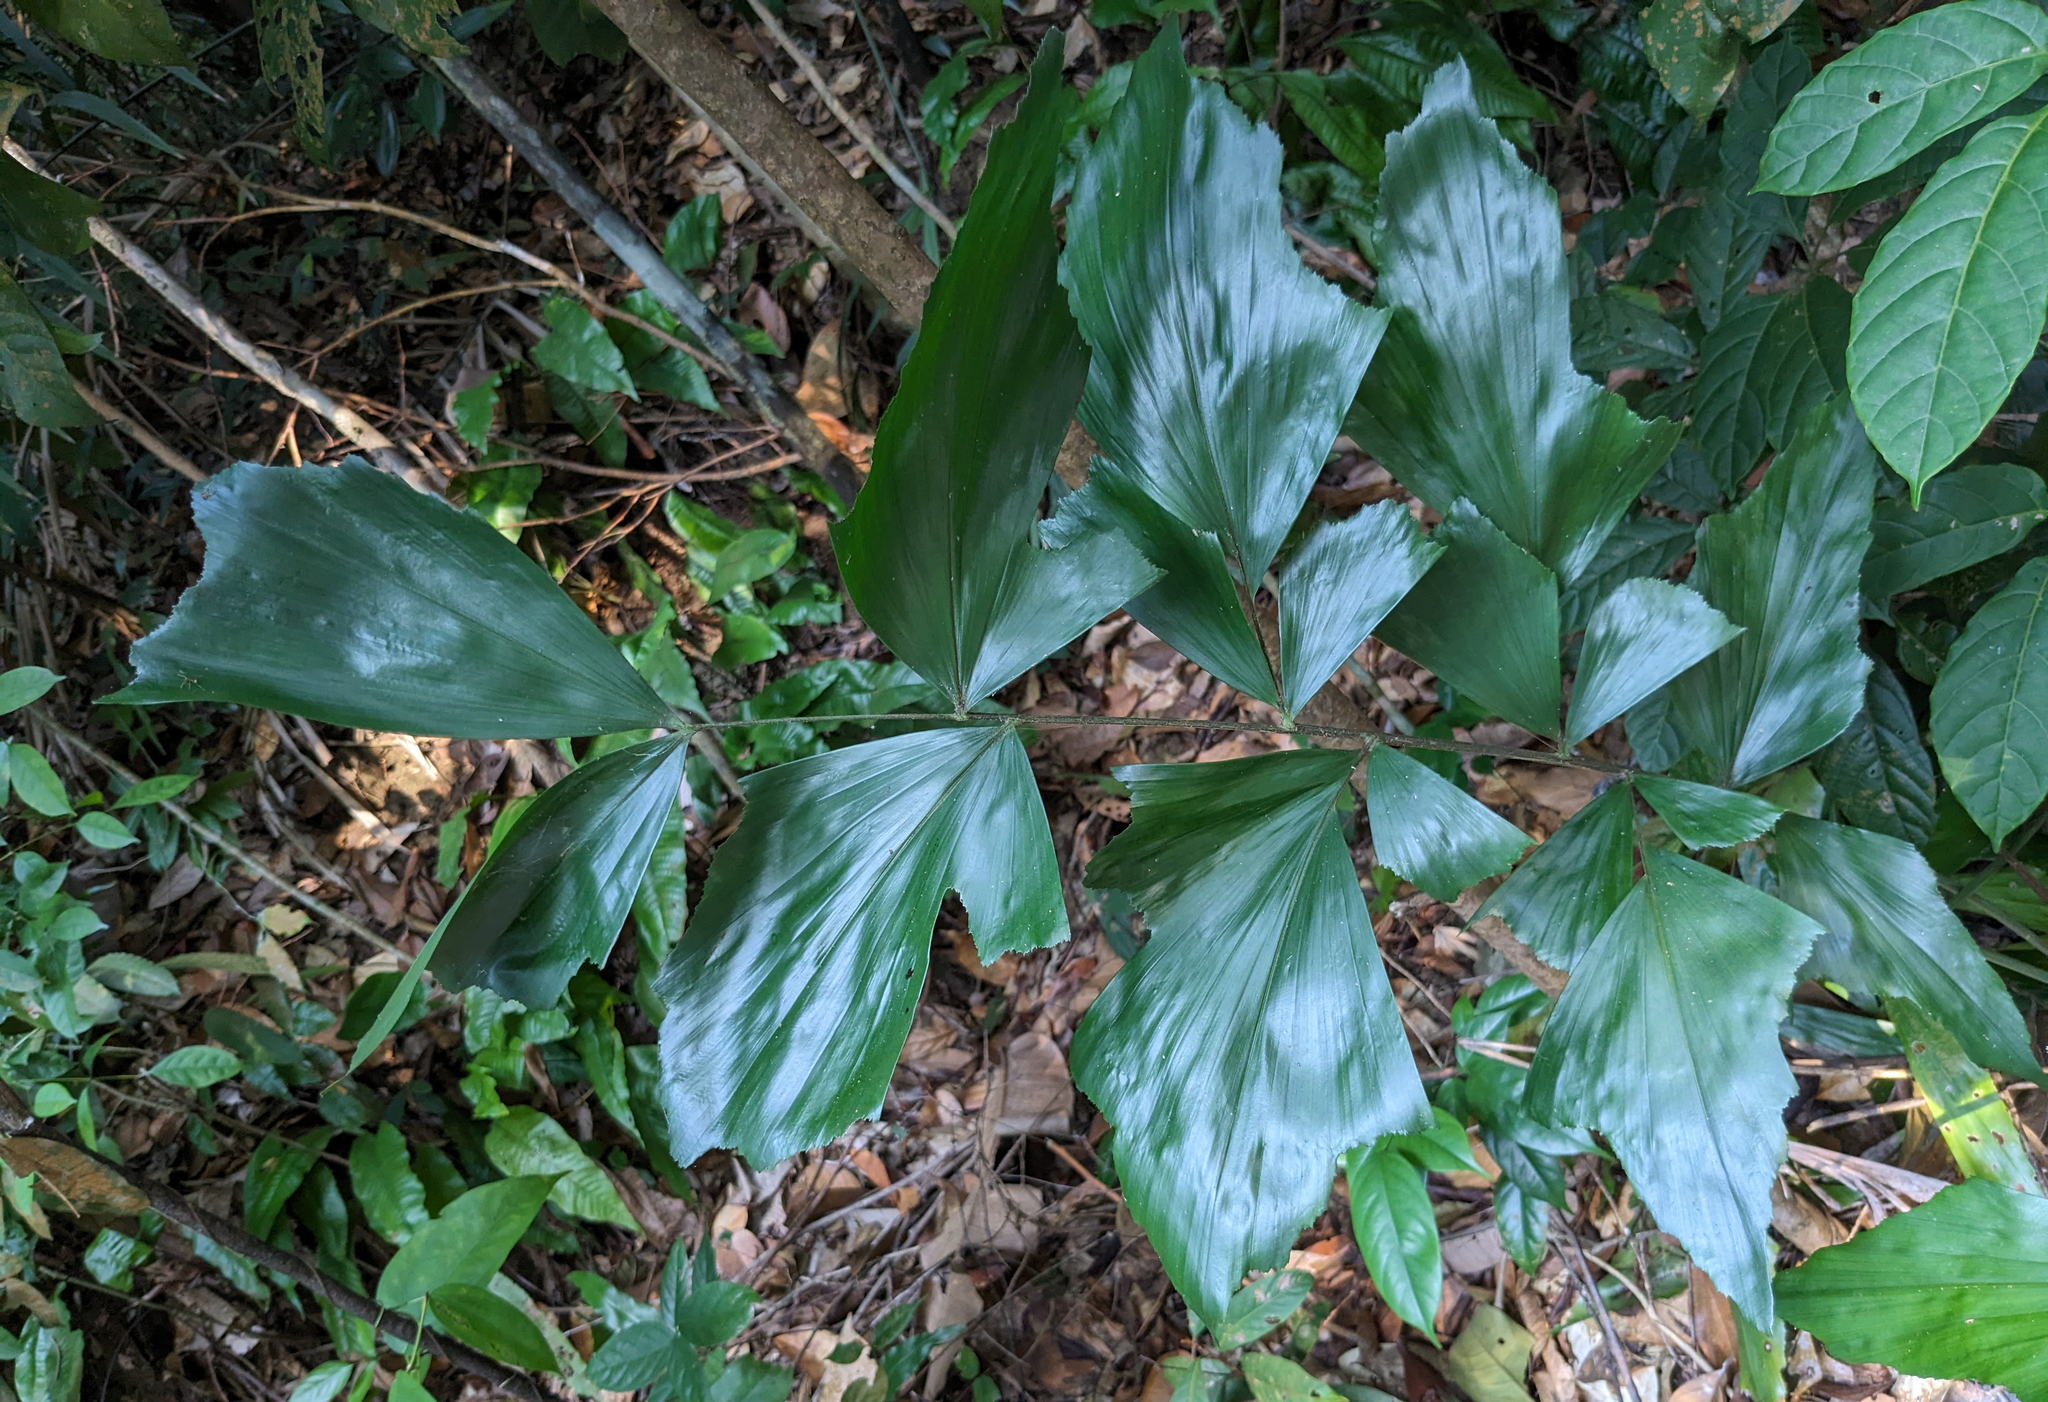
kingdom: Plantae
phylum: Tracheophyta
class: Liliopsida
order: Arecales
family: Arecaceae
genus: Caryota
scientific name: Caryota mitis
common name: Burmese fishtail palm
